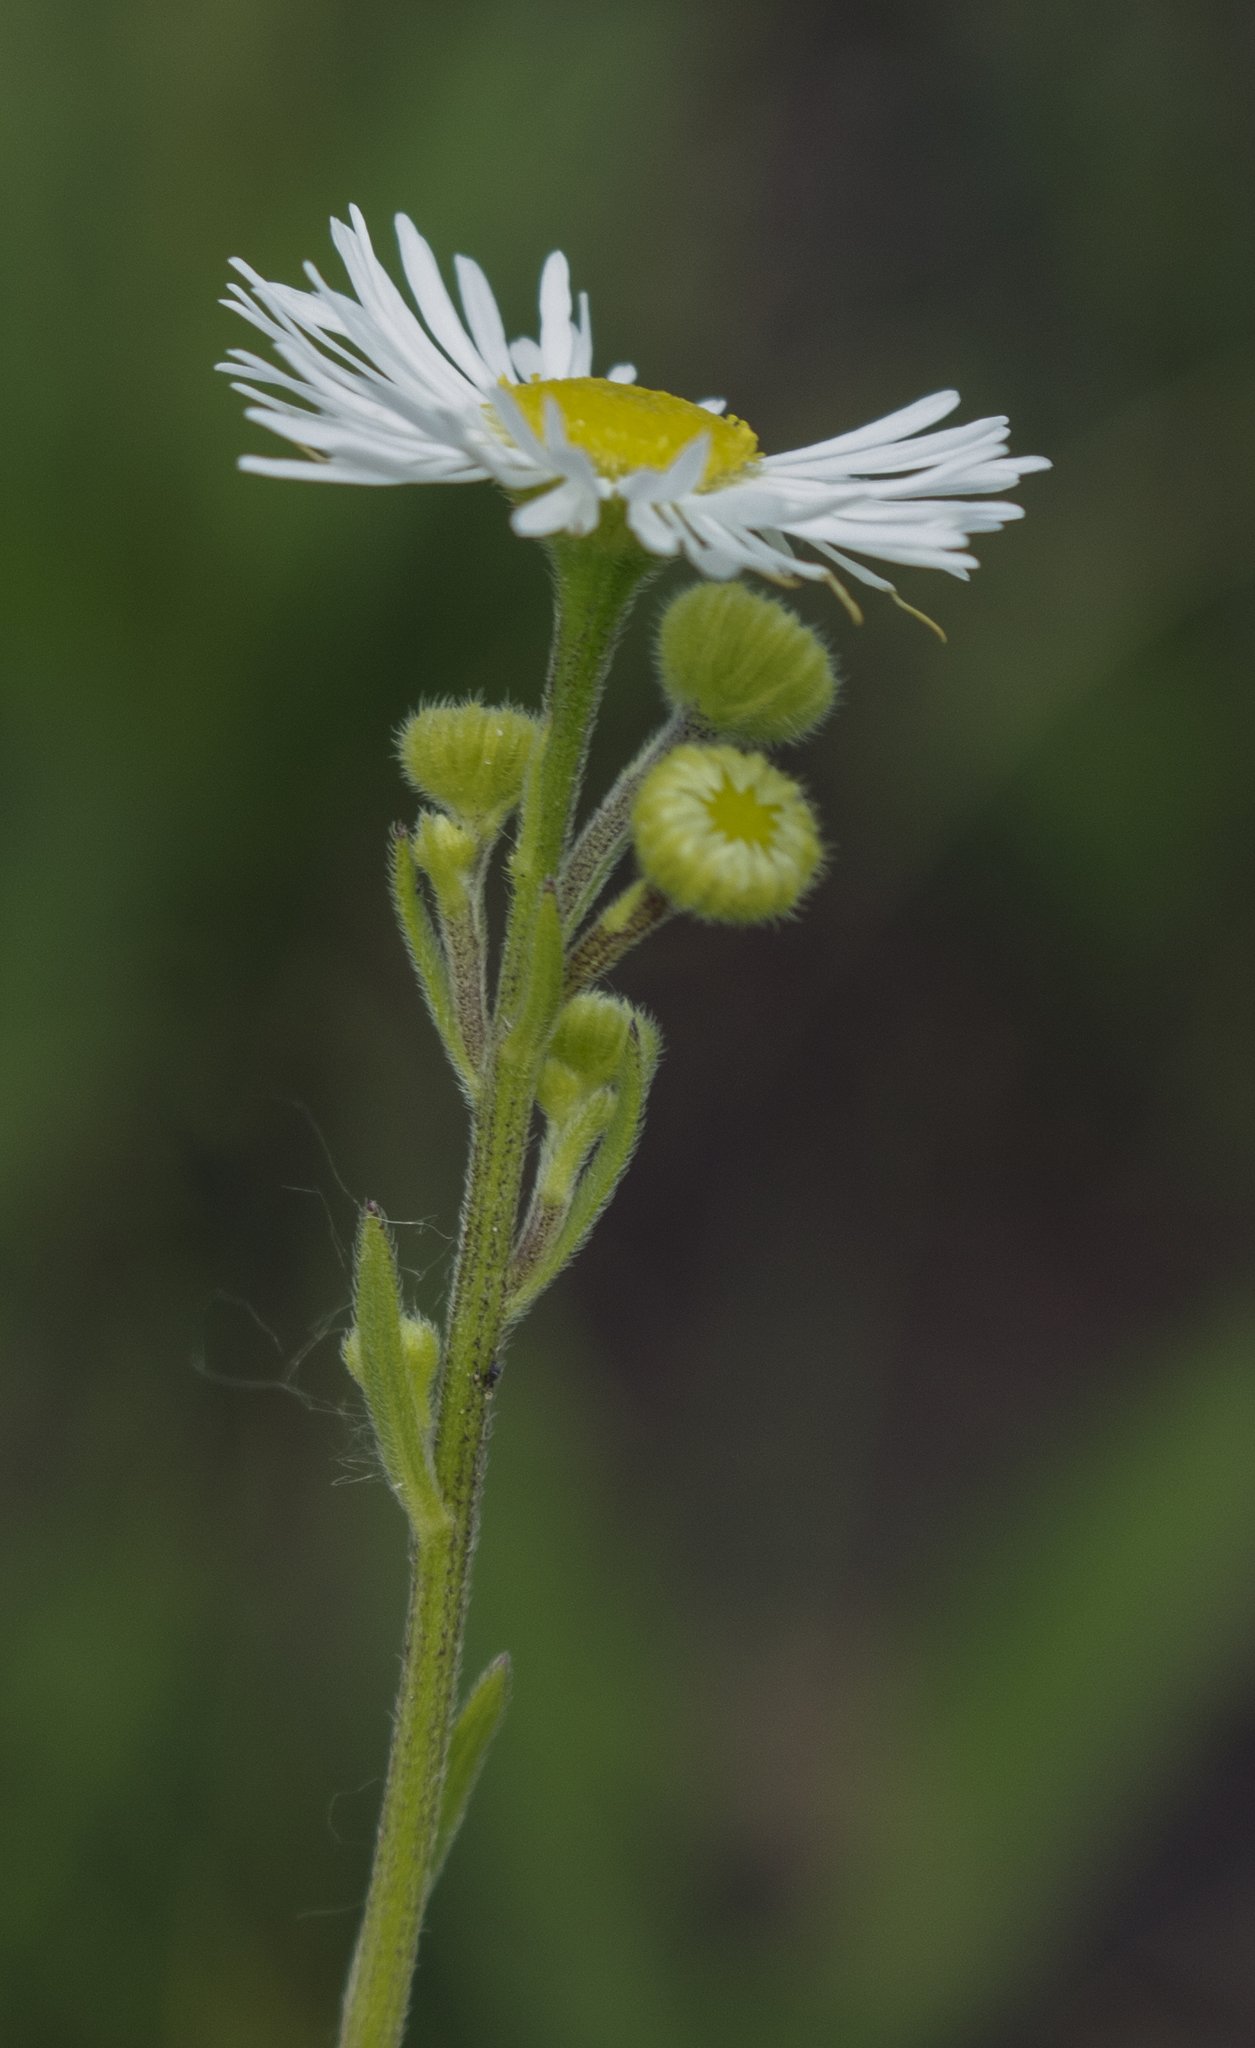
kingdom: Plantae
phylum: Tracheophyta
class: Magnoliopsida
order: Asterales
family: Asteraceae
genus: Erigeron
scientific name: Erigeron strigosus
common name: Common eastern fleabane
